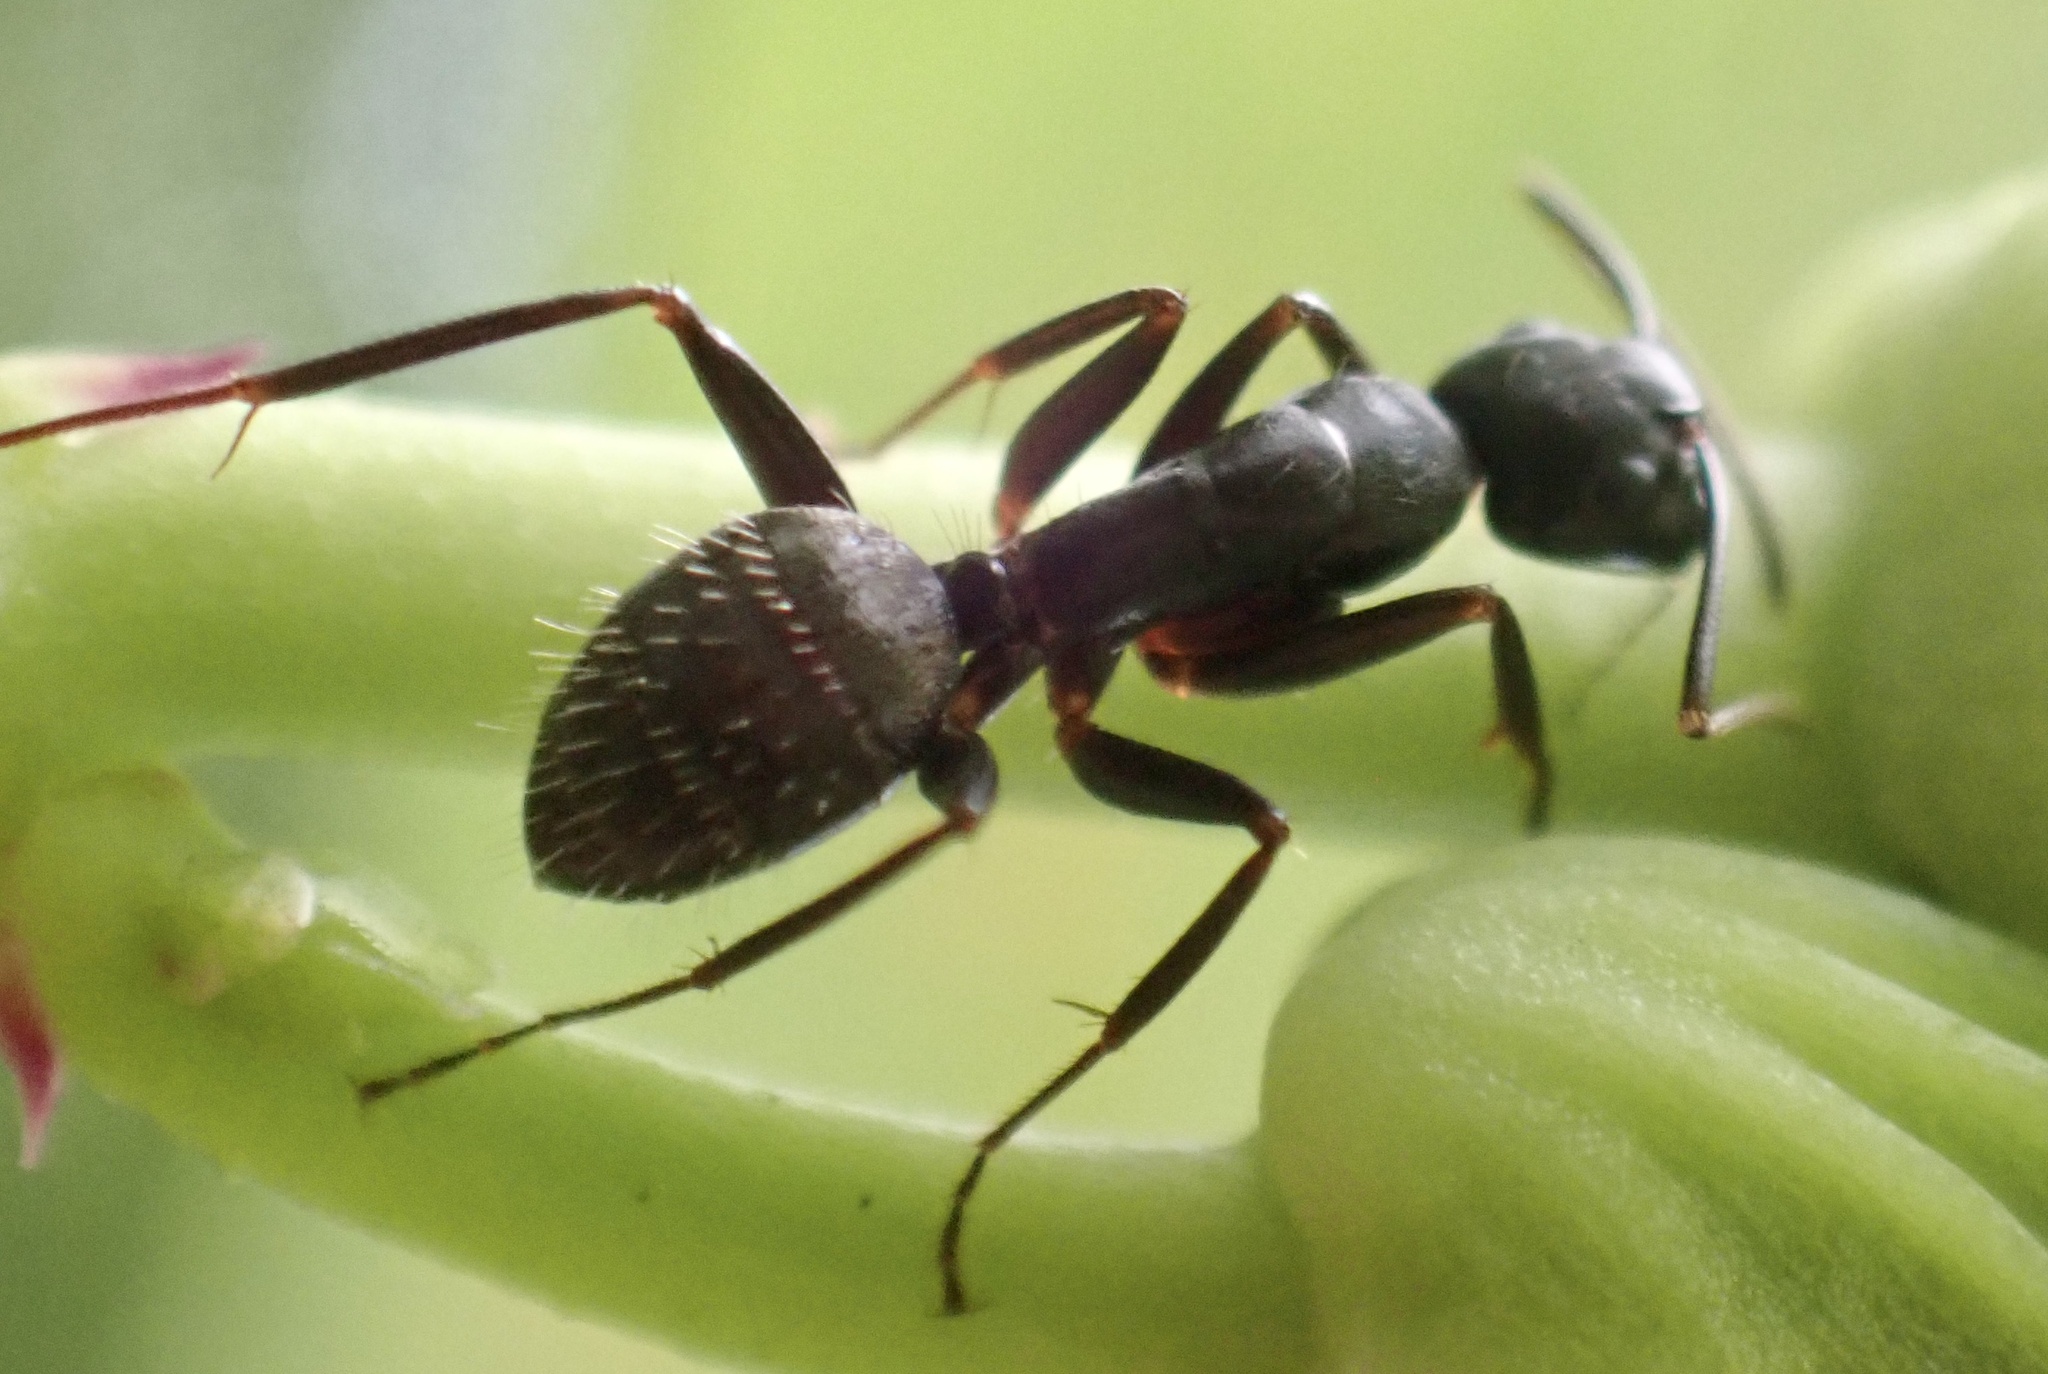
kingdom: Animalia
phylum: Arthropoda
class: Insecta
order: Hymenoptera
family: Formicidae
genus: Camponotus
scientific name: Camponotus chromaiodes
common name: Red carpenter ant
